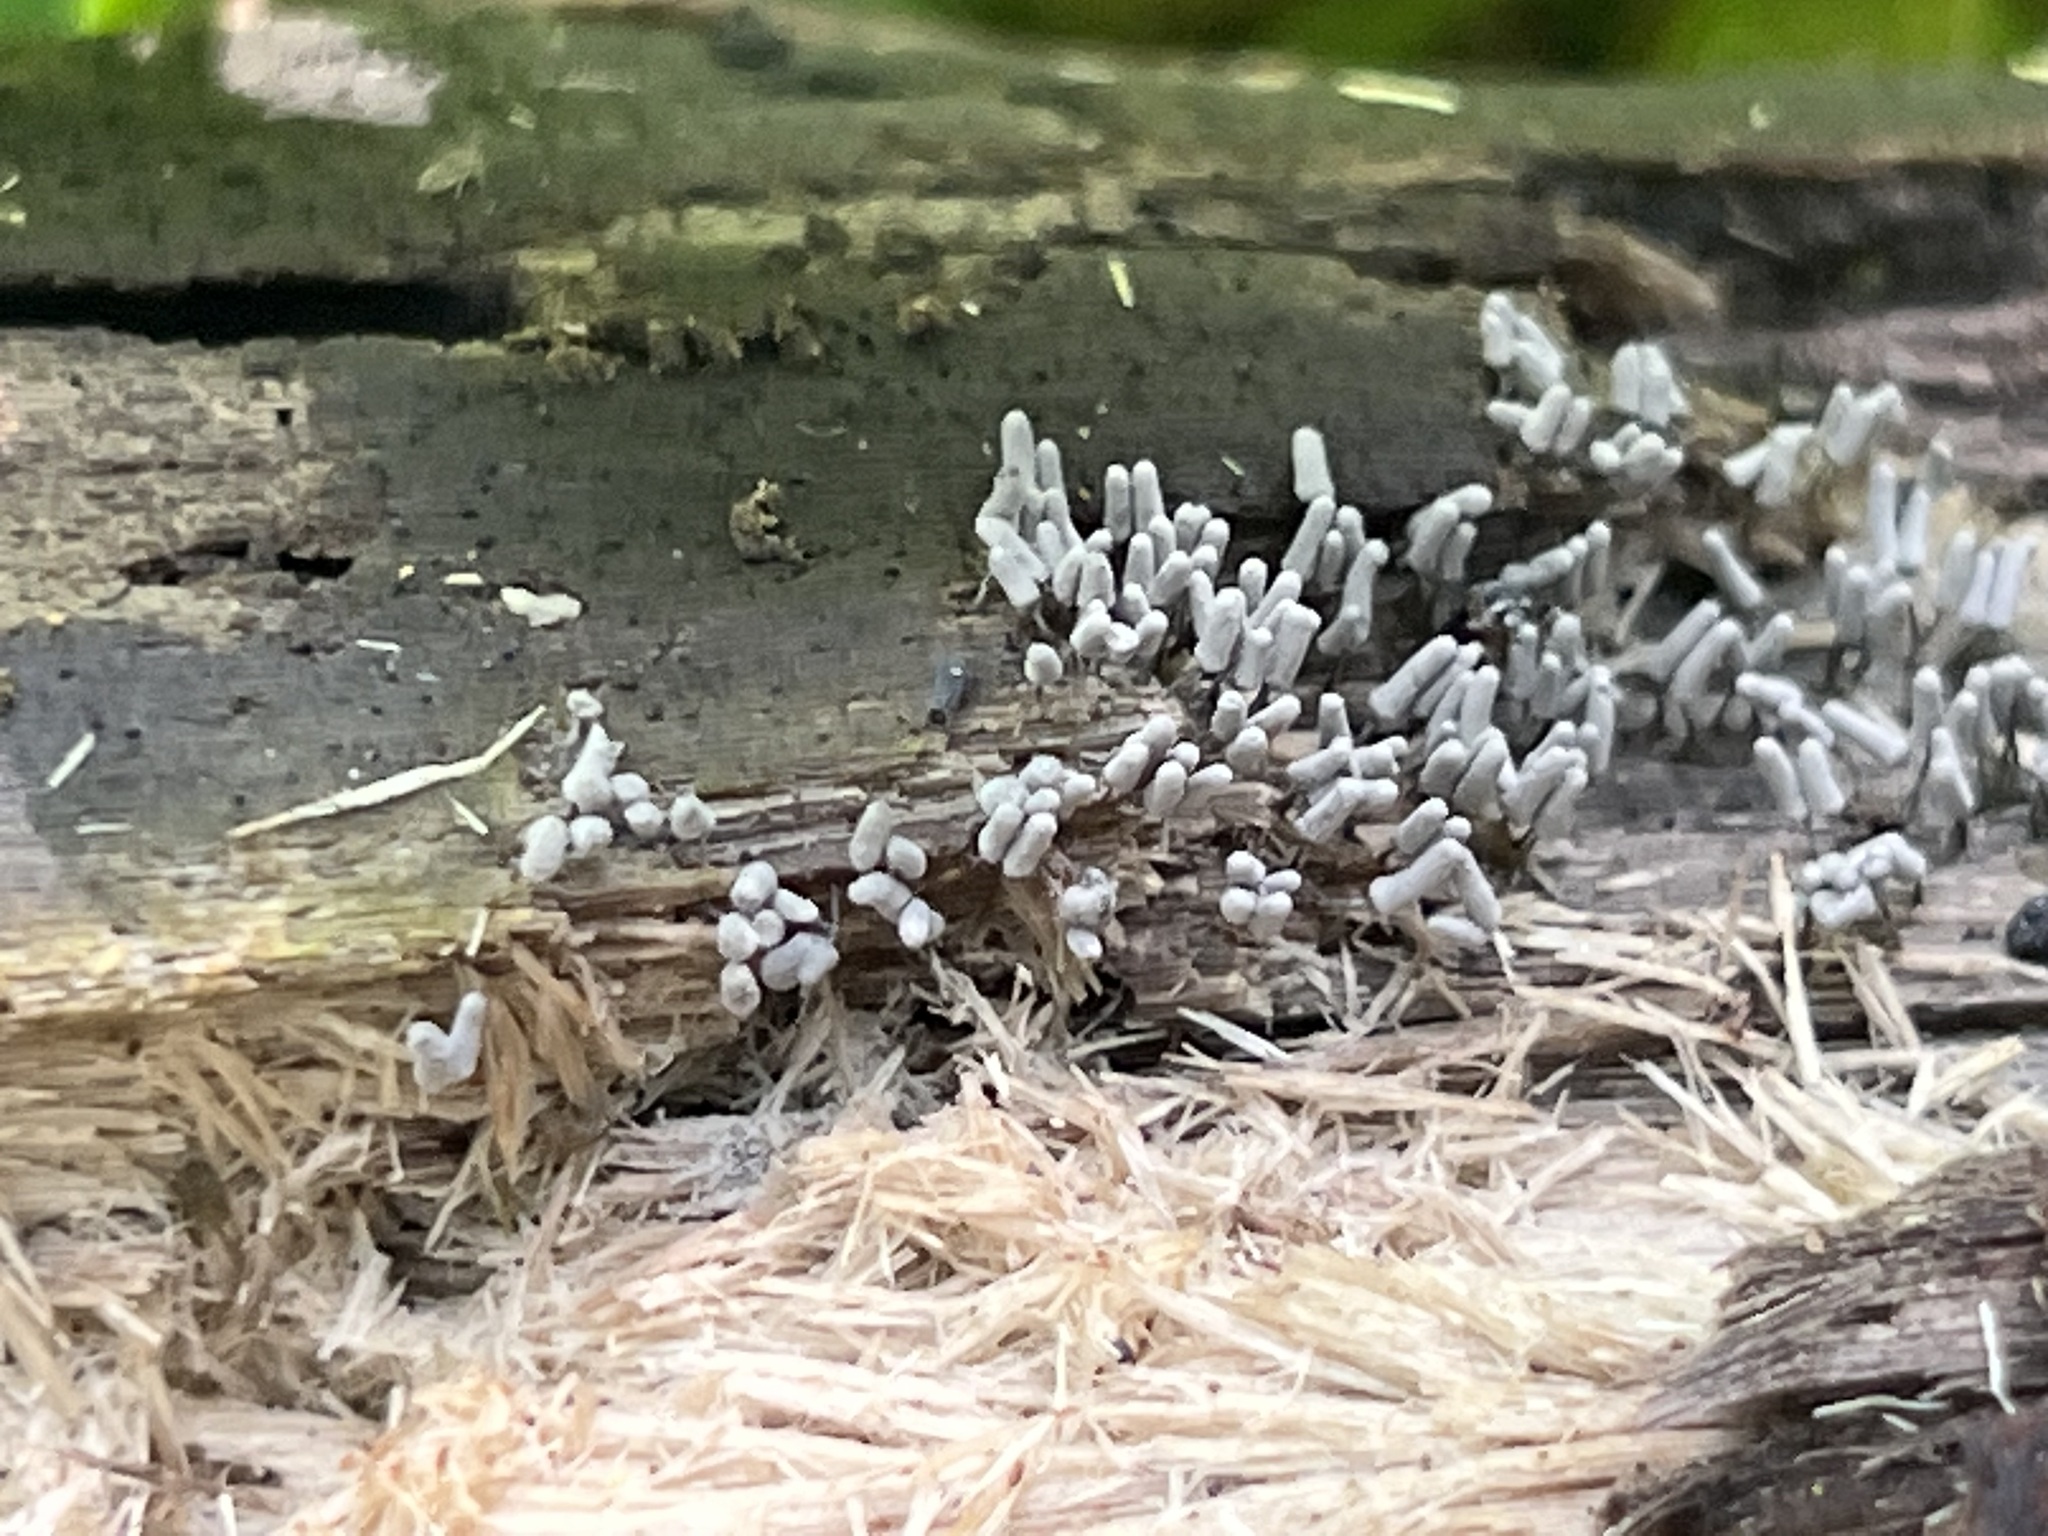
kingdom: Protozoa
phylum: Mycetozoa
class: Myxomycetes
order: Trichiales
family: Arcyriaceae
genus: Arcyria
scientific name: Arcyria cinerea
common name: White carnival candy slime mold
